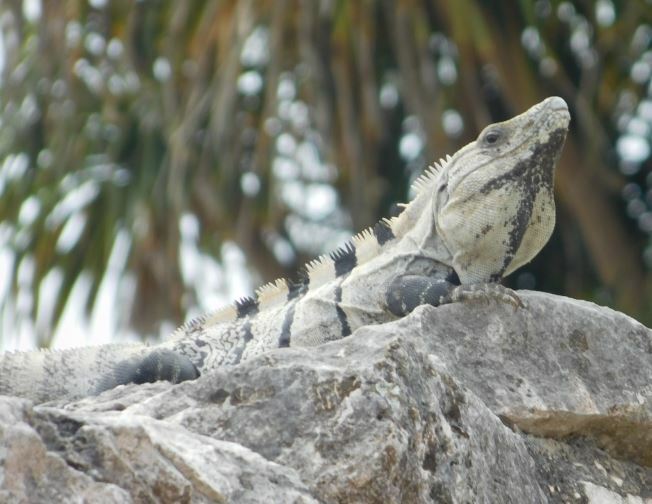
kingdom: Animalia
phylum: Chordata
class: Squamata
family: Iguanidae
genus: Ctenosaura
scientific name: Ctenosaura similis
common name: Black spiny-tailed iguana
